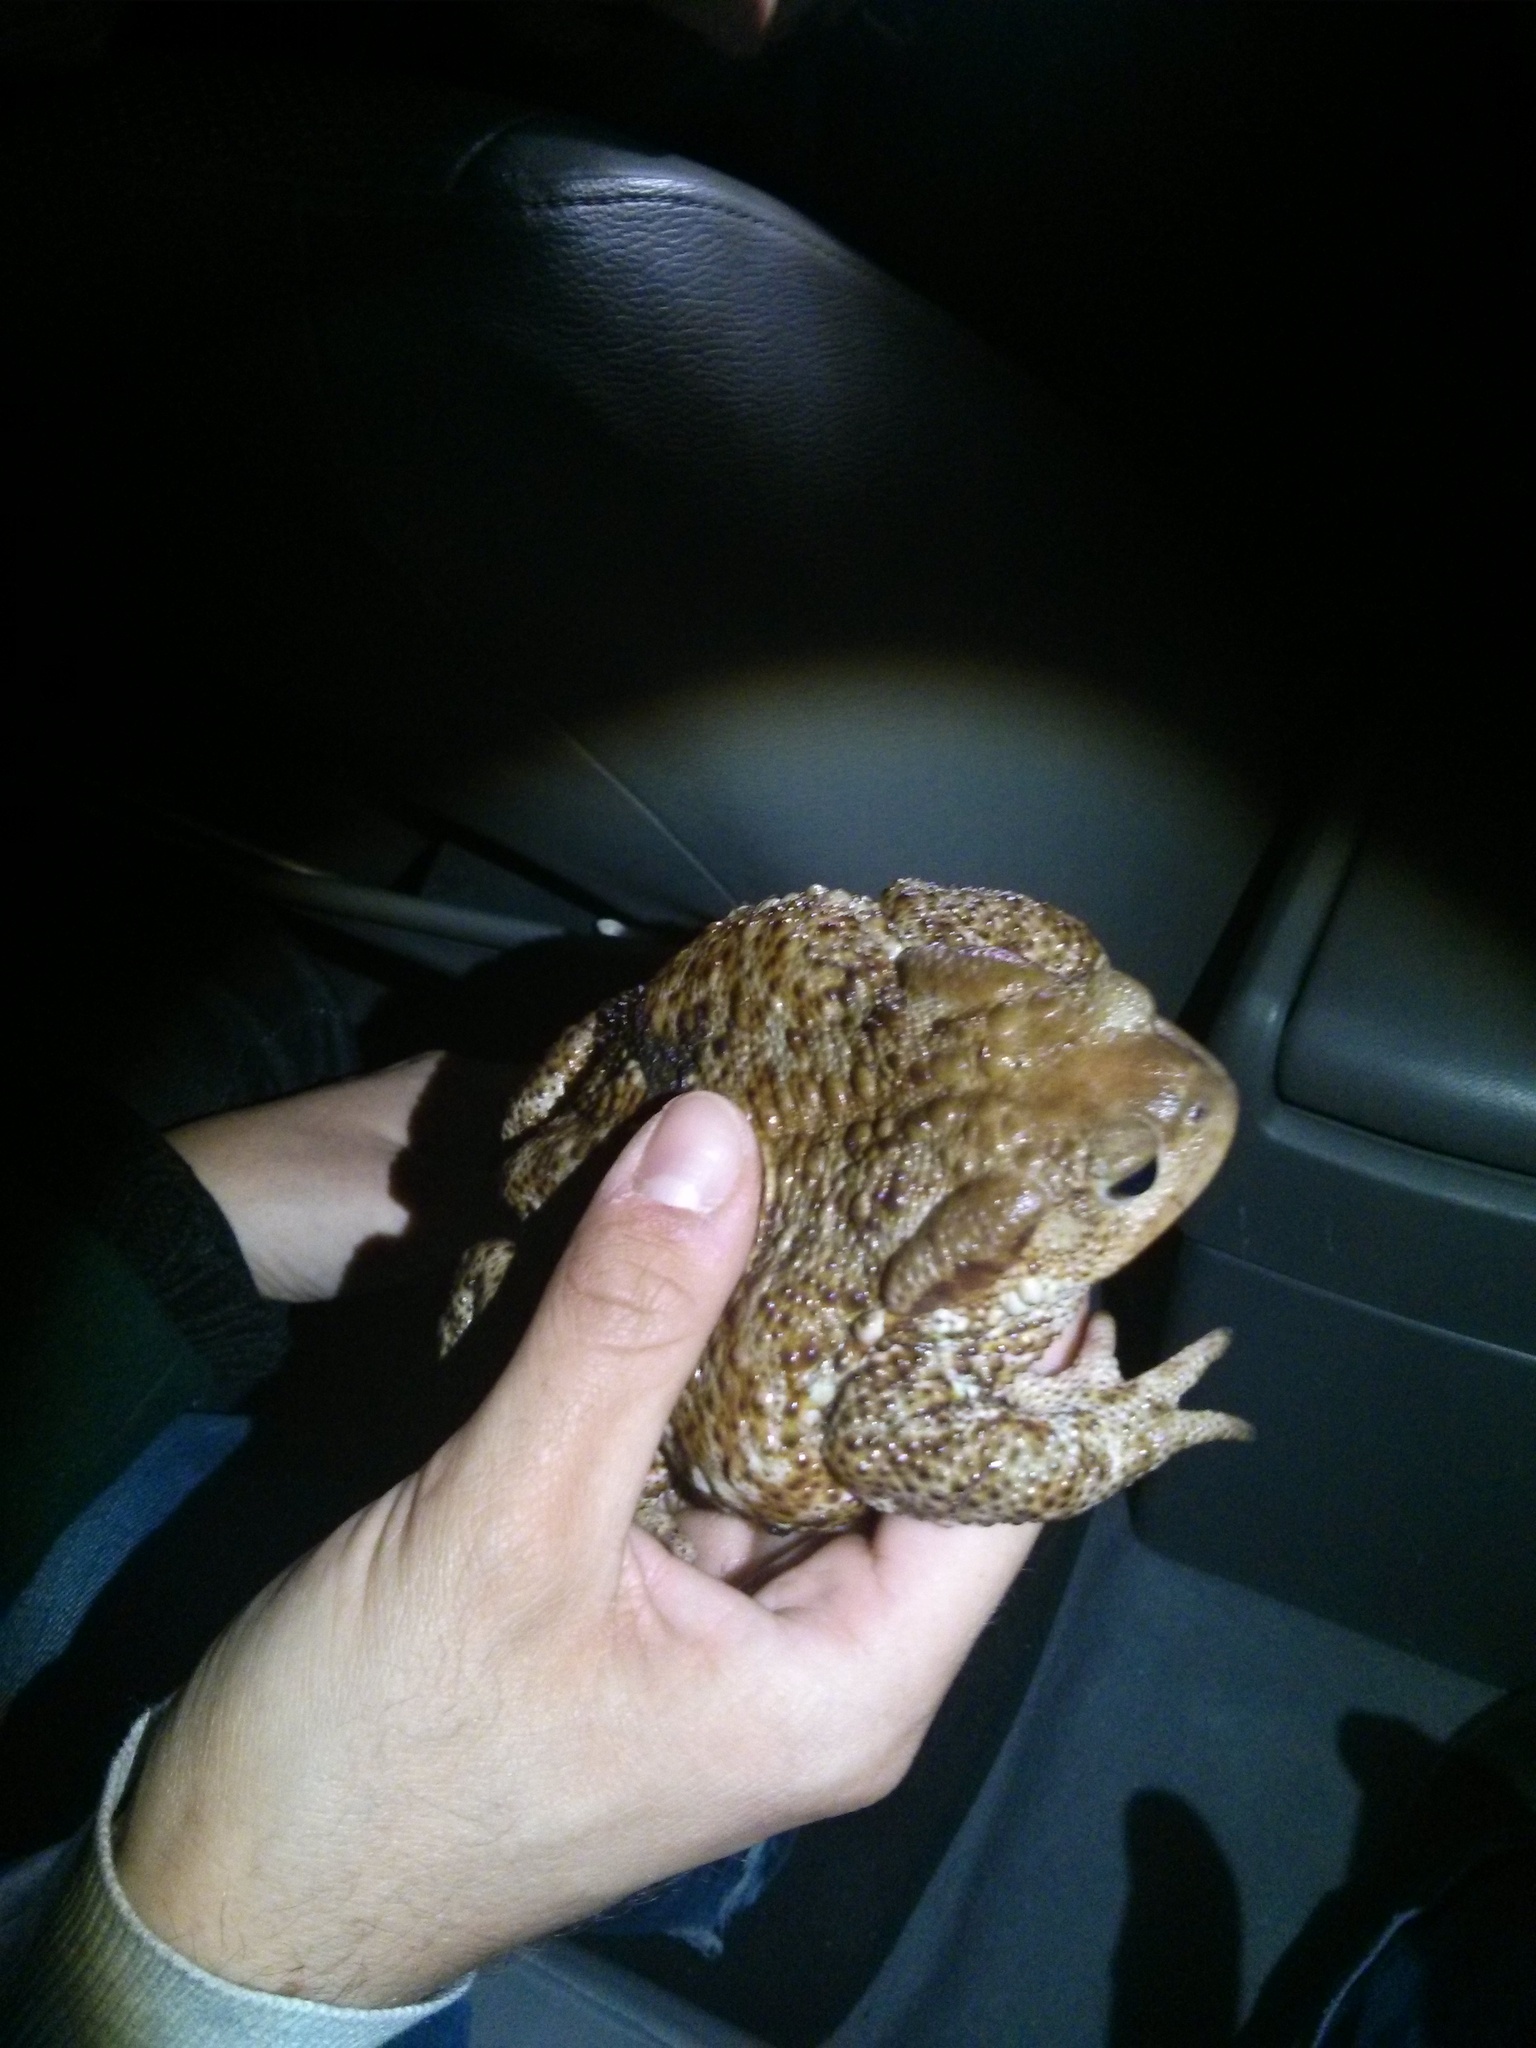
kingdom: Animalia
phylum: Chordata
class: Amphibia
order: Anura
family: Bufonidae
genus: Bufo
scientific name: Bufo bufo
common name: Common toad
